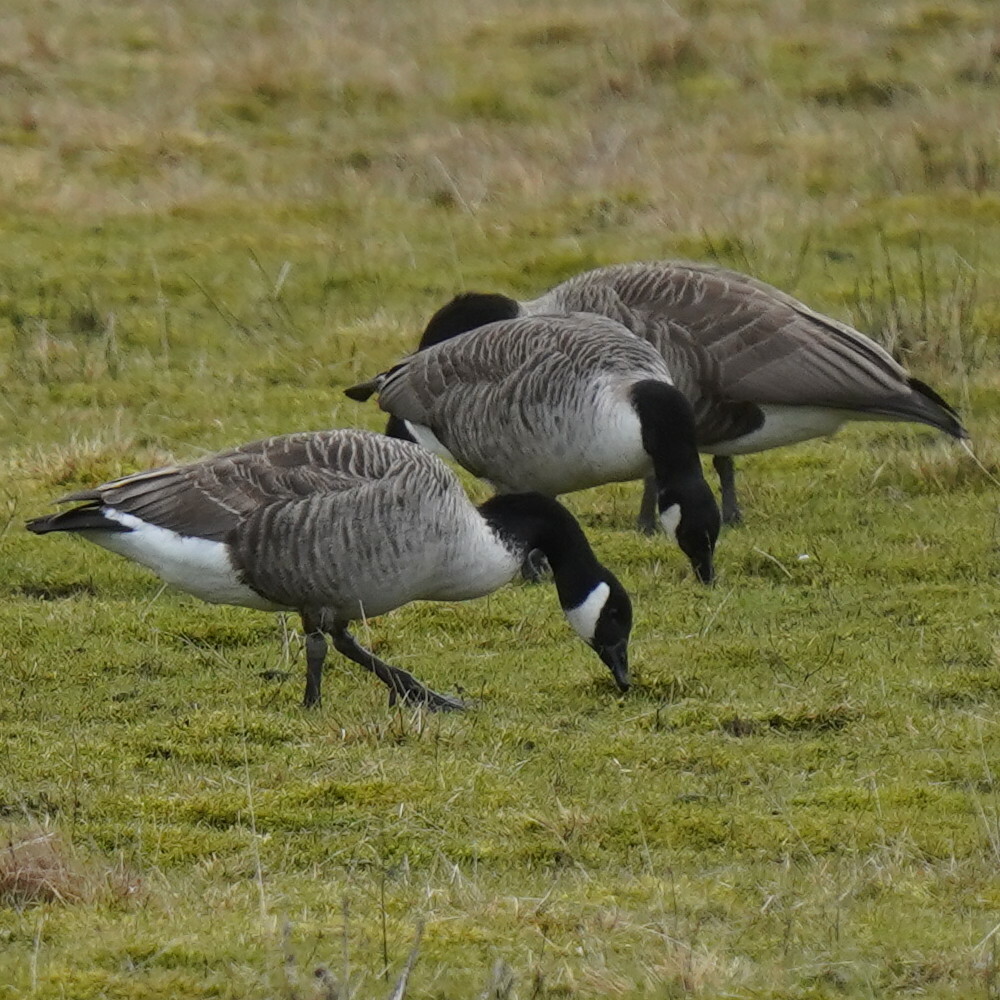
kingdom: Animalia
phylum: Chordata
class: Aves
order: Anseriformes
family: Anatidae
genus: Branta
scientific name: Branta canadensis
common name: Canada goose
